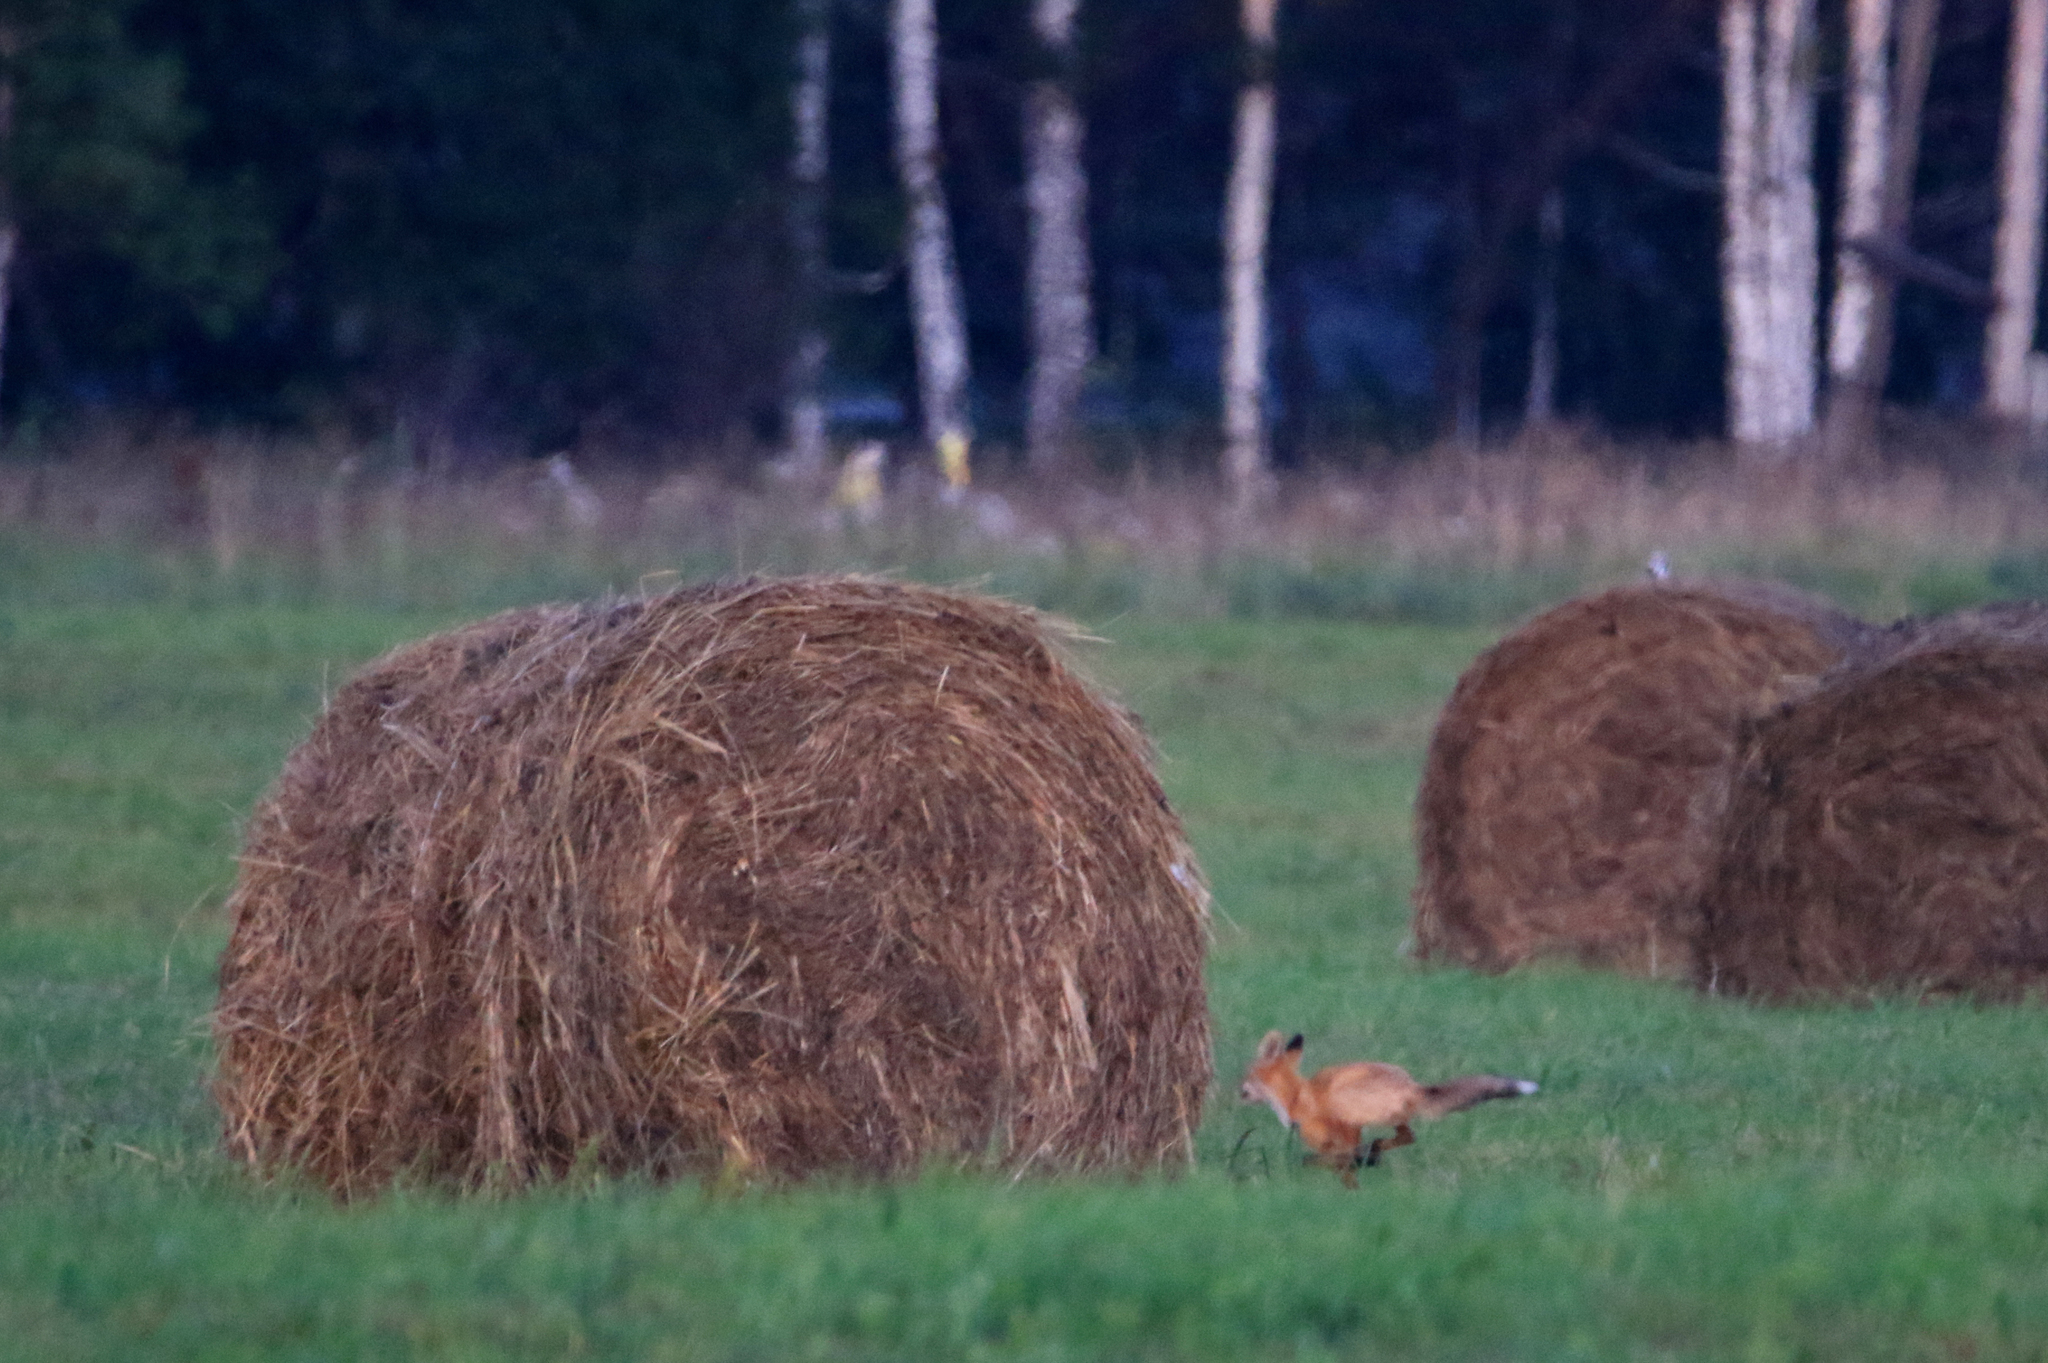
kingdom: Animalia
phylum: Chordata
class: Mammalia
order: Carnivora
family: Canidae
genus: Vulpes
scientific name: Vulpes vulpes
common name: Red fox
